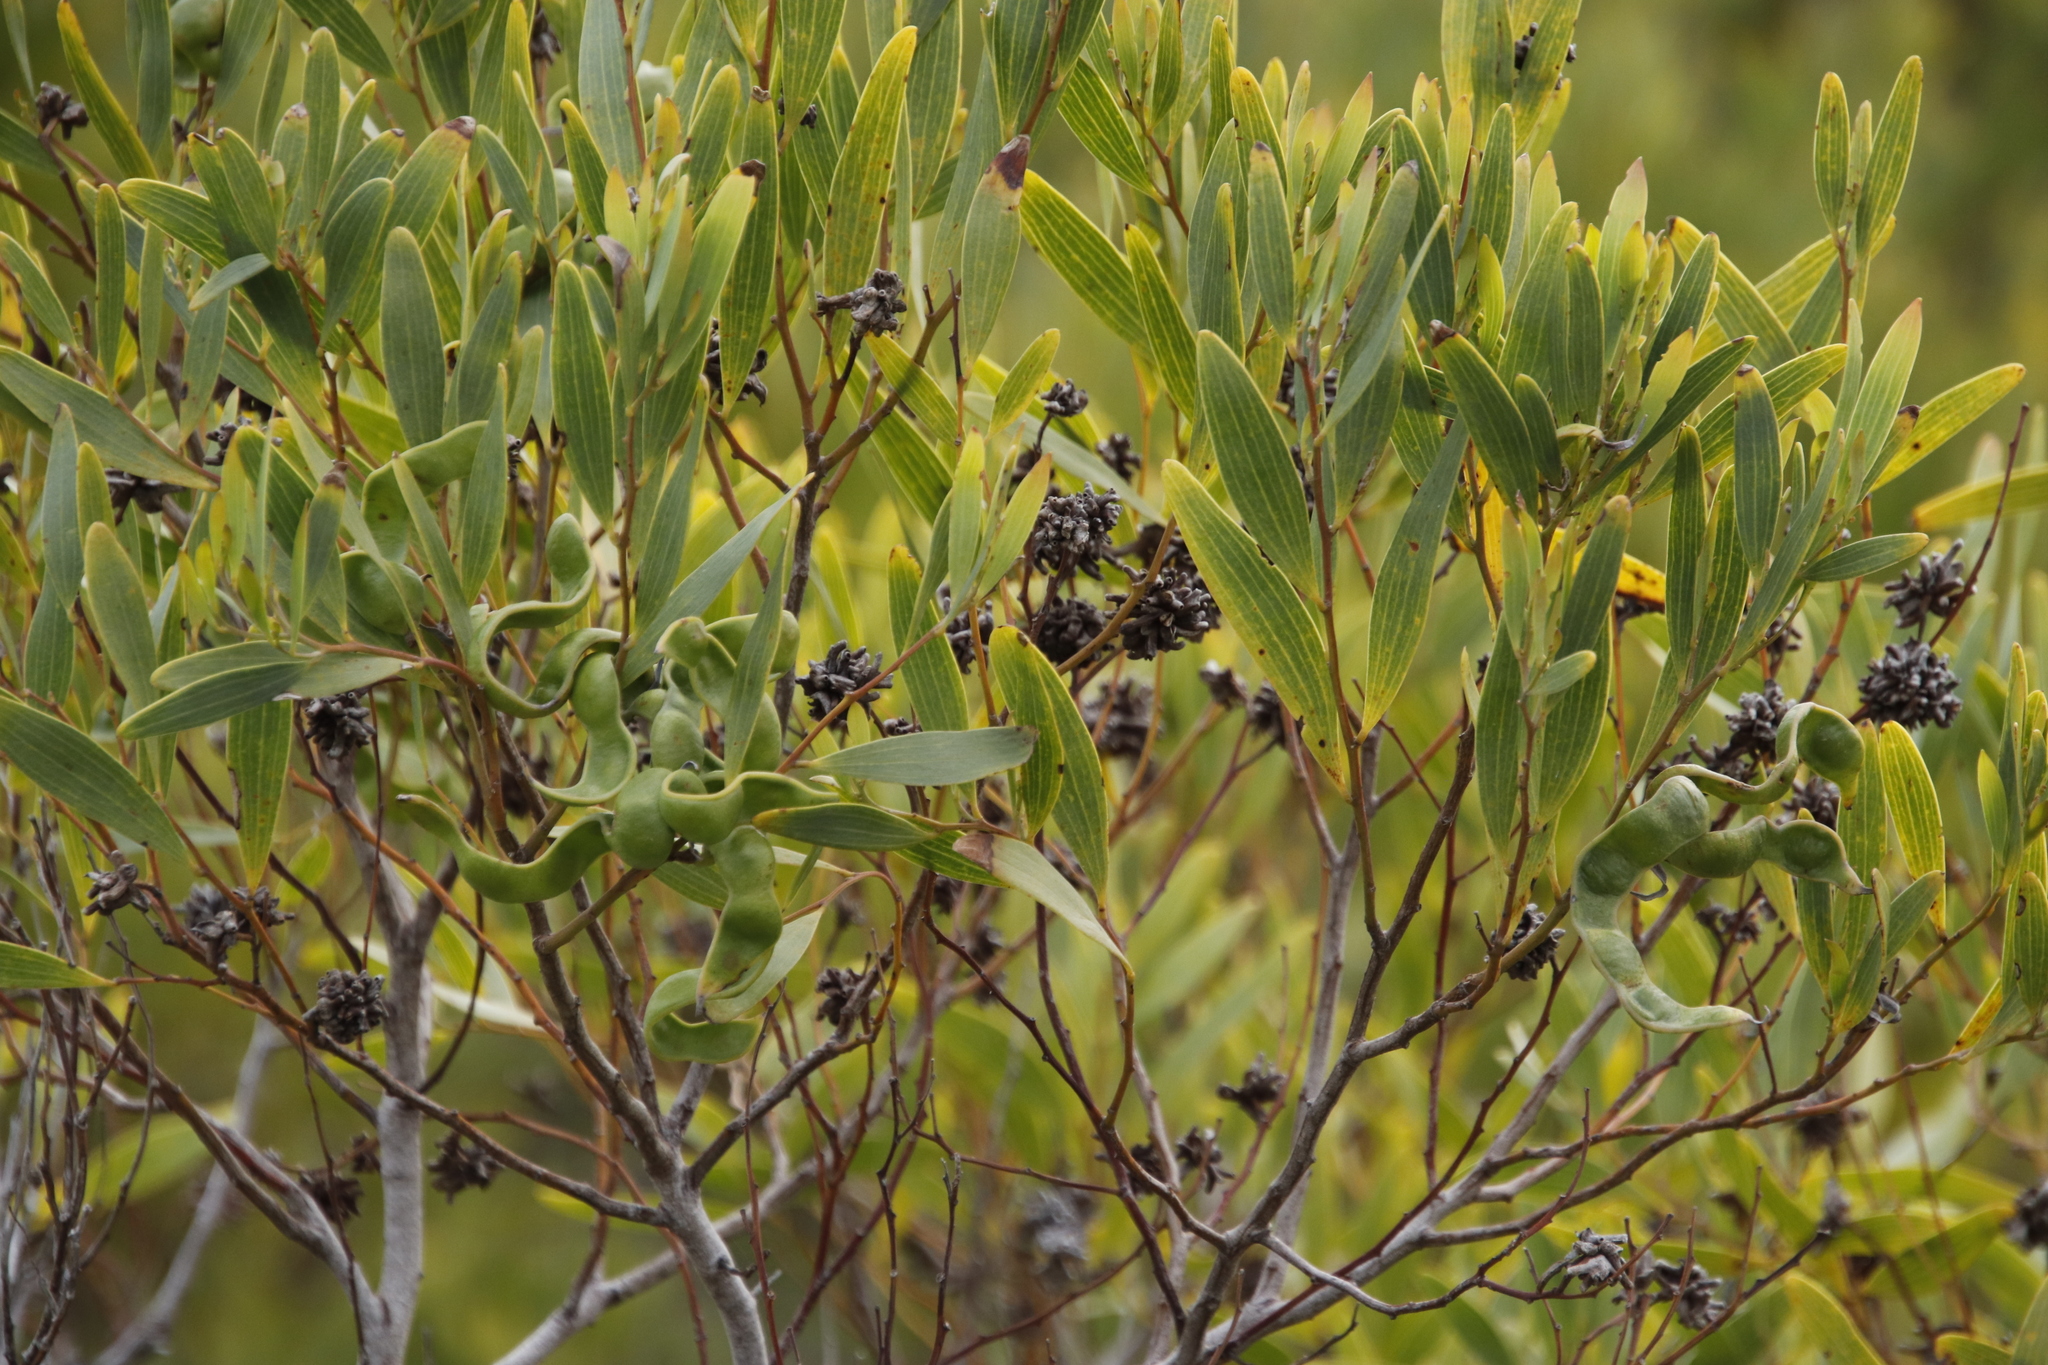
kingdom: Plantae
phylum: Tracheophyta
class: Magnoliopsida
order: Fabales
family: Fabaceae
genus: Acacia
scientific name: Acacia cyclops
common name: Coastal wattle
